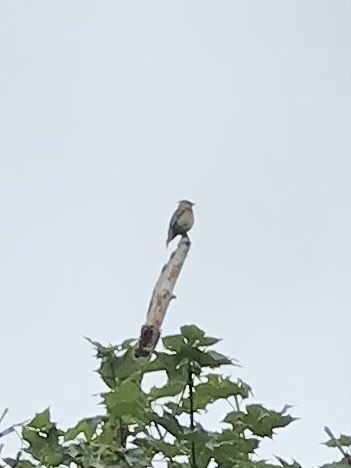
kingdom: Animalia
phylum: Chordata
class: Aves
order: Passeriformes
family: Bombycillidae
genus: Bombycilla
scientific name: Bombycilla cedrorum
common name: Cedar waxwing
